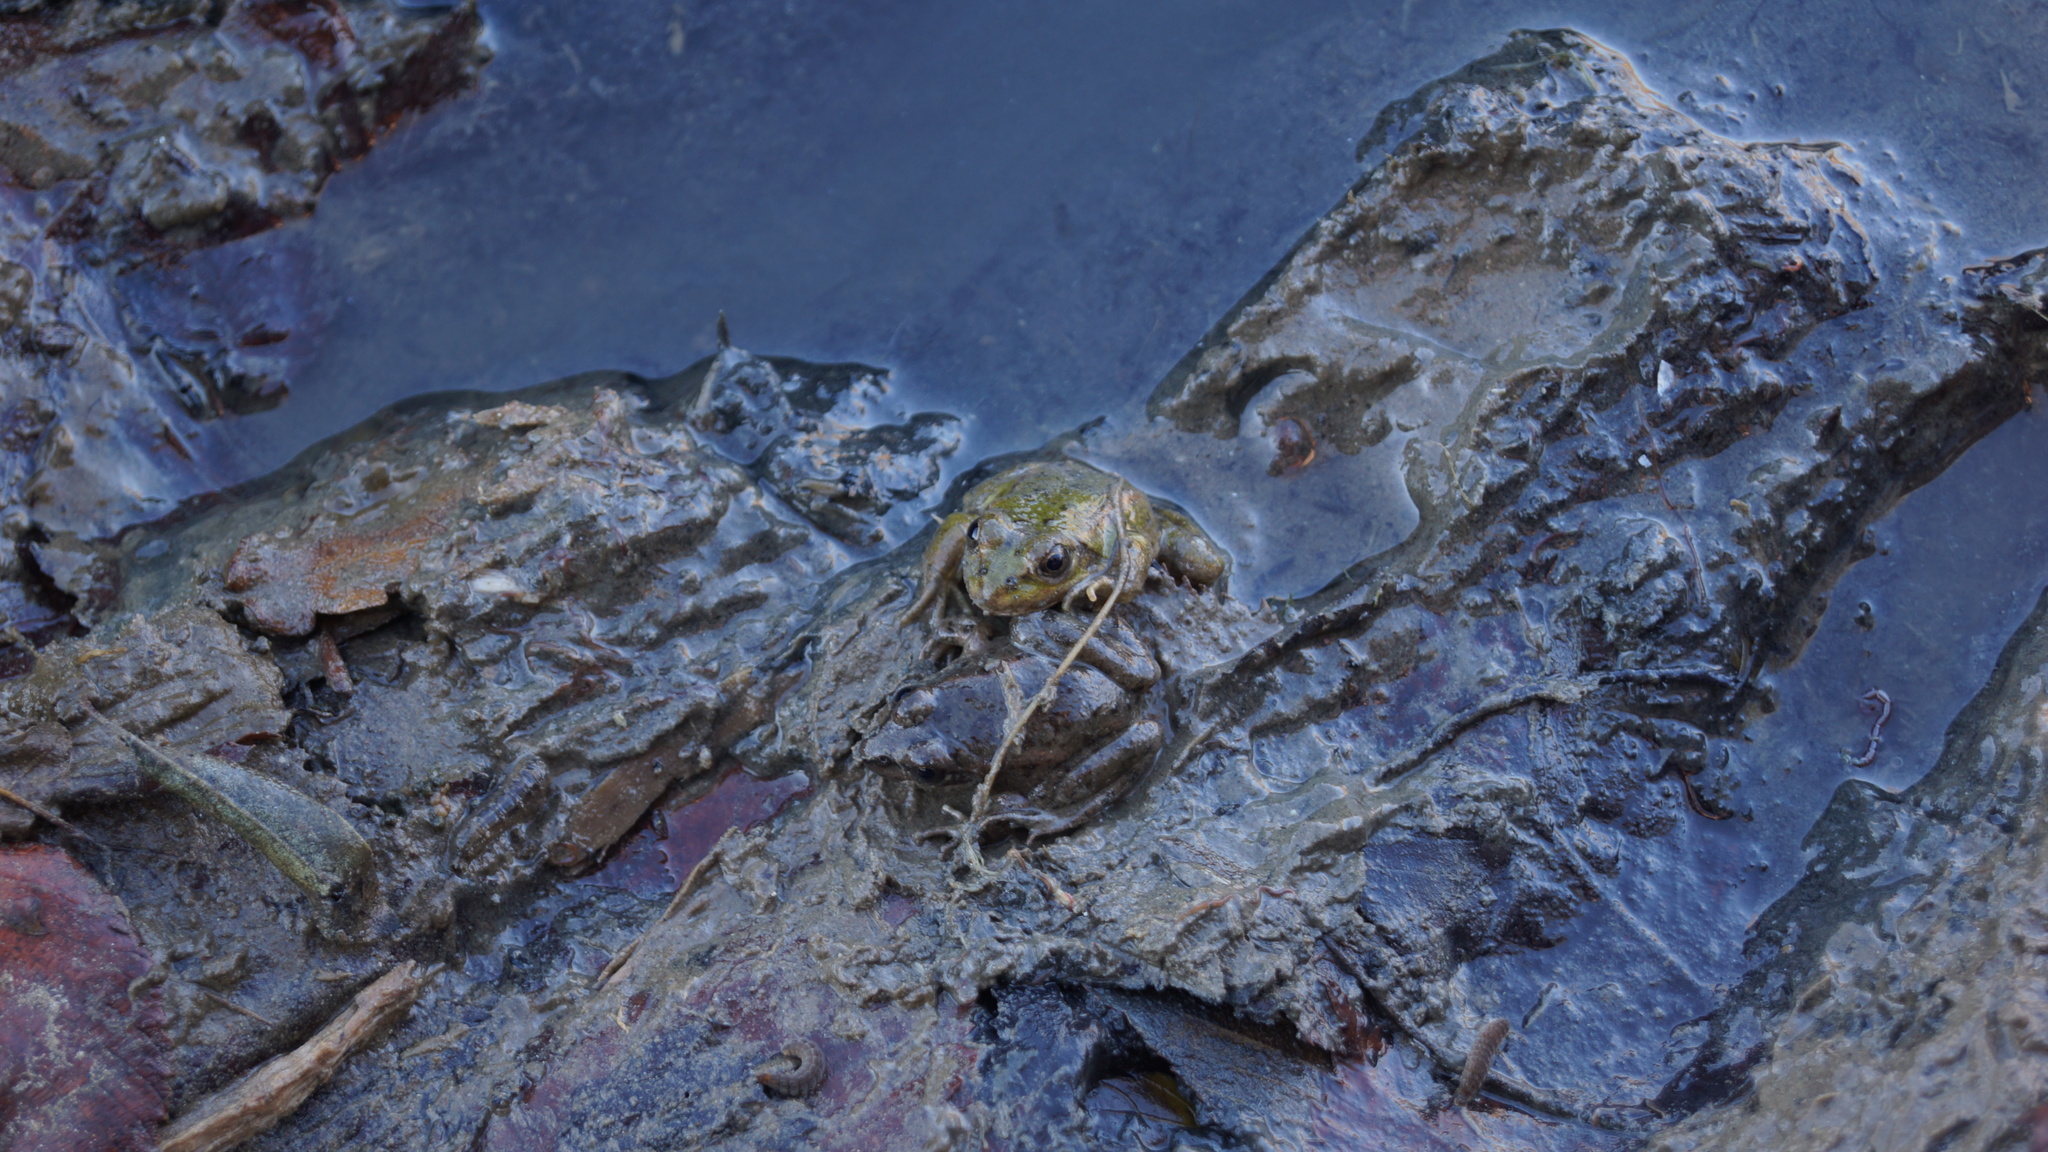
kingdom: Animalia
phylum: Chordata
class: Amphibia
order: Anura
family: Ranidae
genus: Pelophylax
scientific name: Pelophylax ridibundus
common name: Marsh frog
